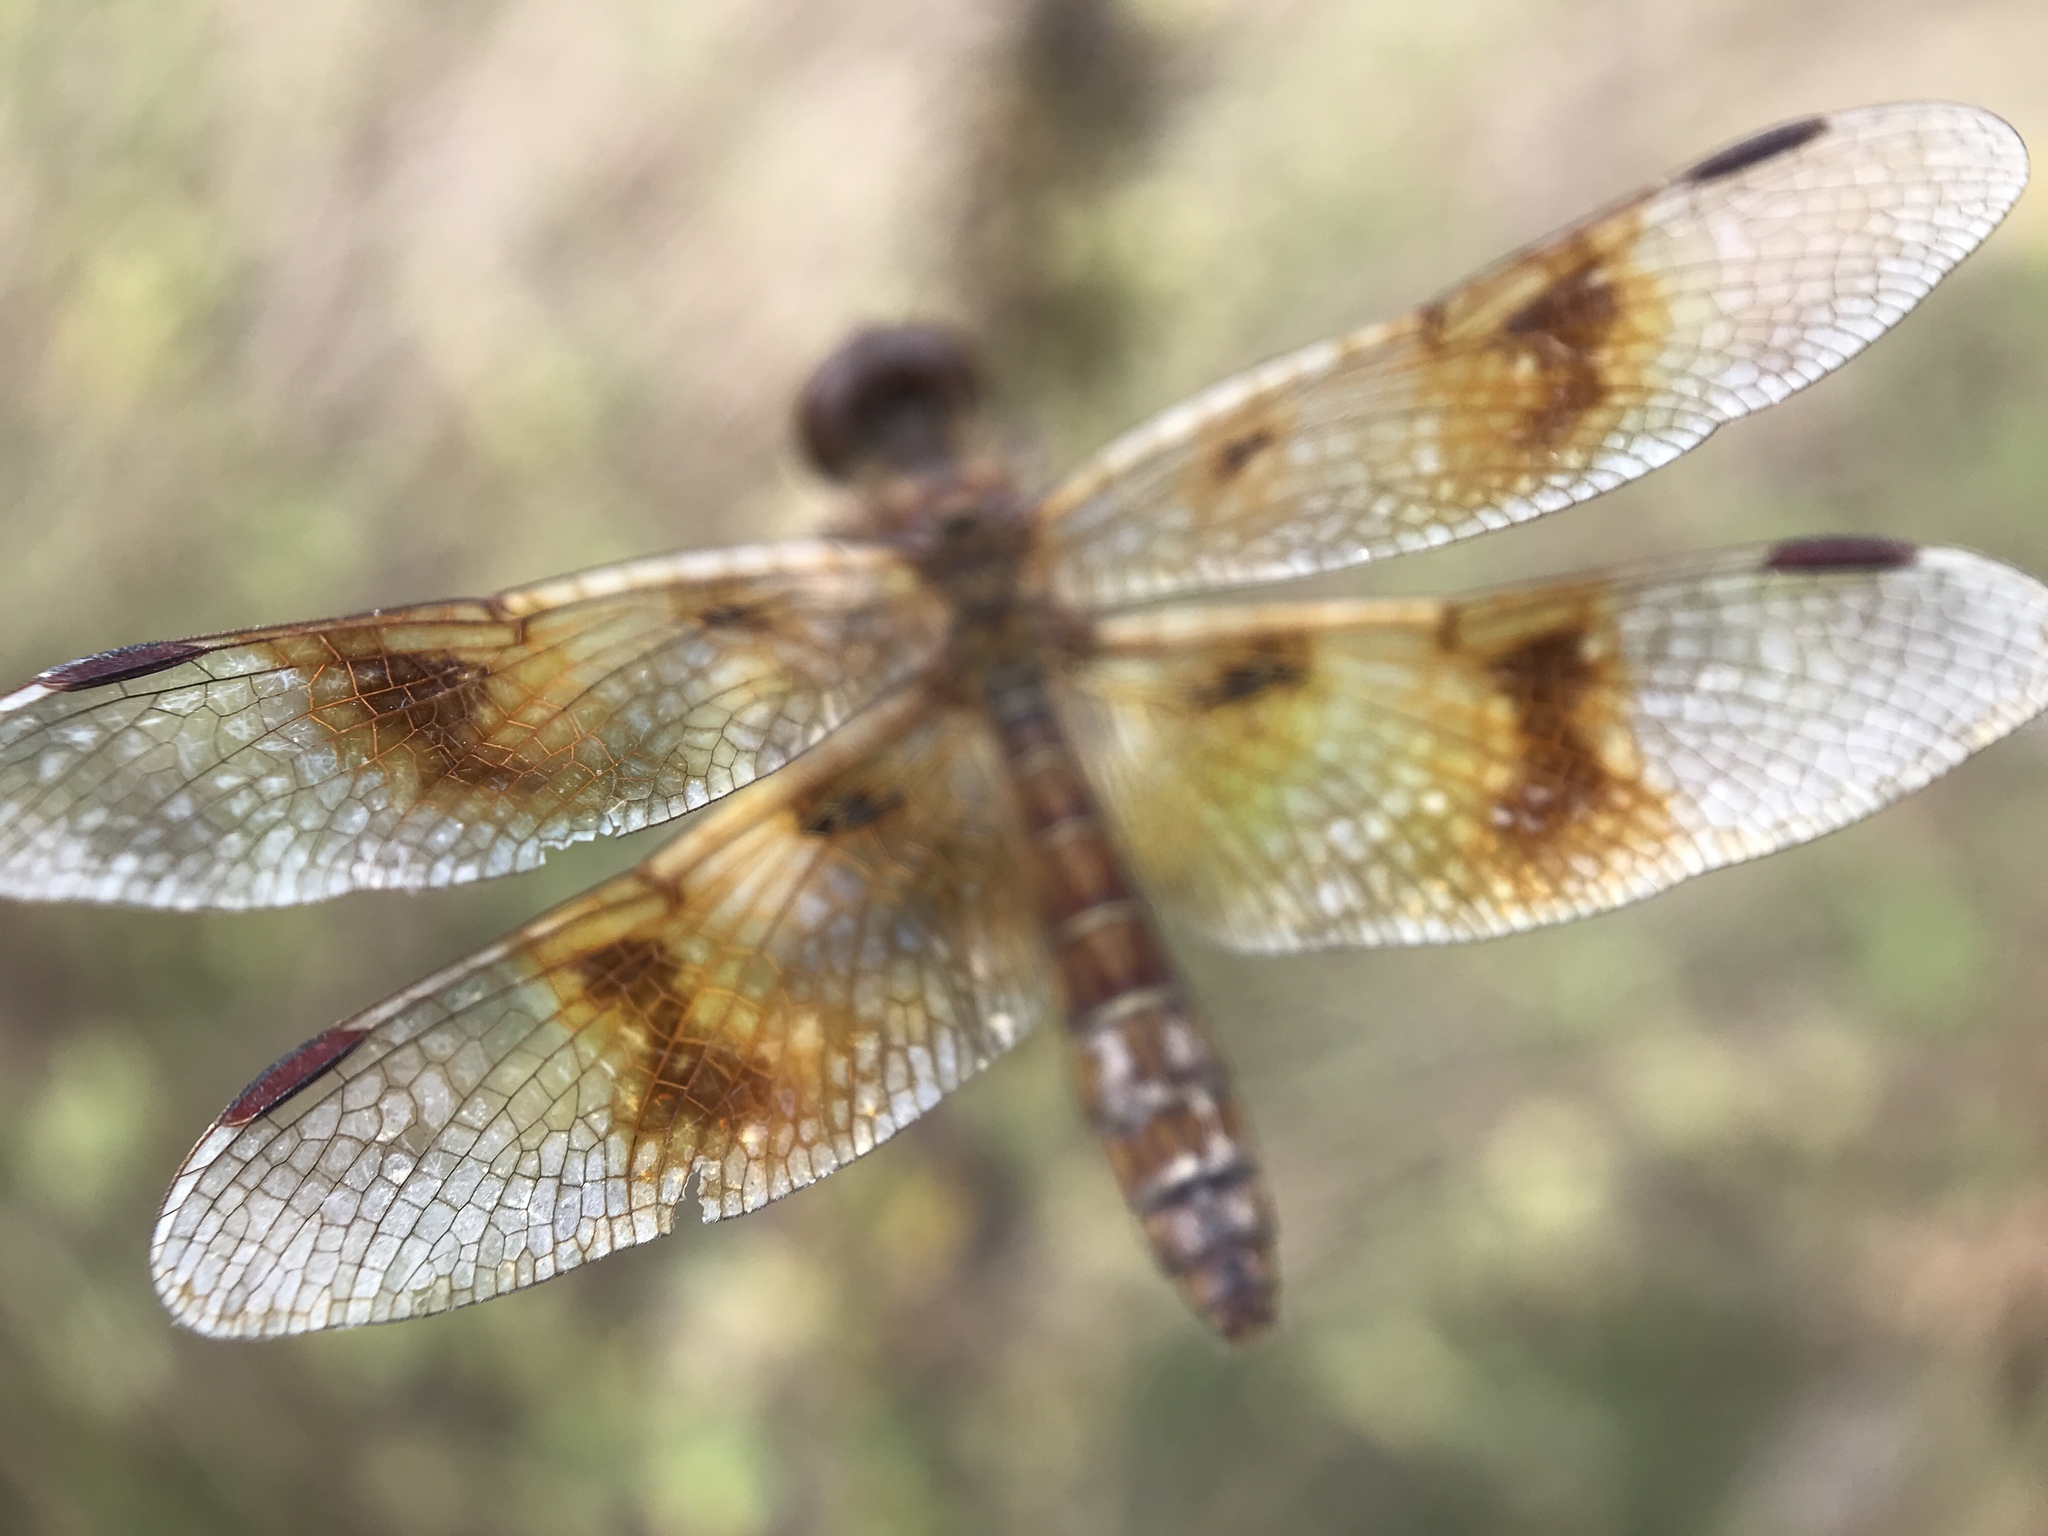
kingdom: Animalia
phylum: Arthropoda
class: Insecta
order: Odonata
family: Libellulidae
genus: Perithemis
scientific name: Perithemis tenera
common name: Eastern amberwing
